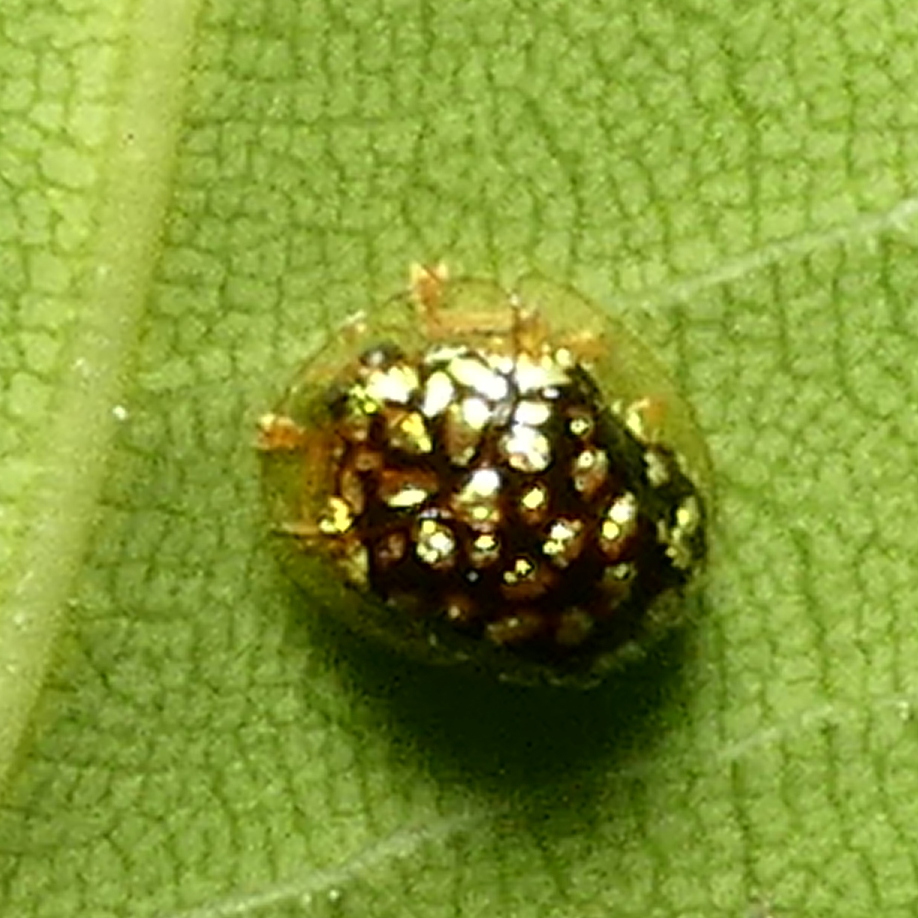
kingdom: Animalia
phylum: Arthropoda
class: Insecta
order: Coleoptera
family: Chrysomelidae
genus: Cteisella
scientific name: Cteisella guttigera
